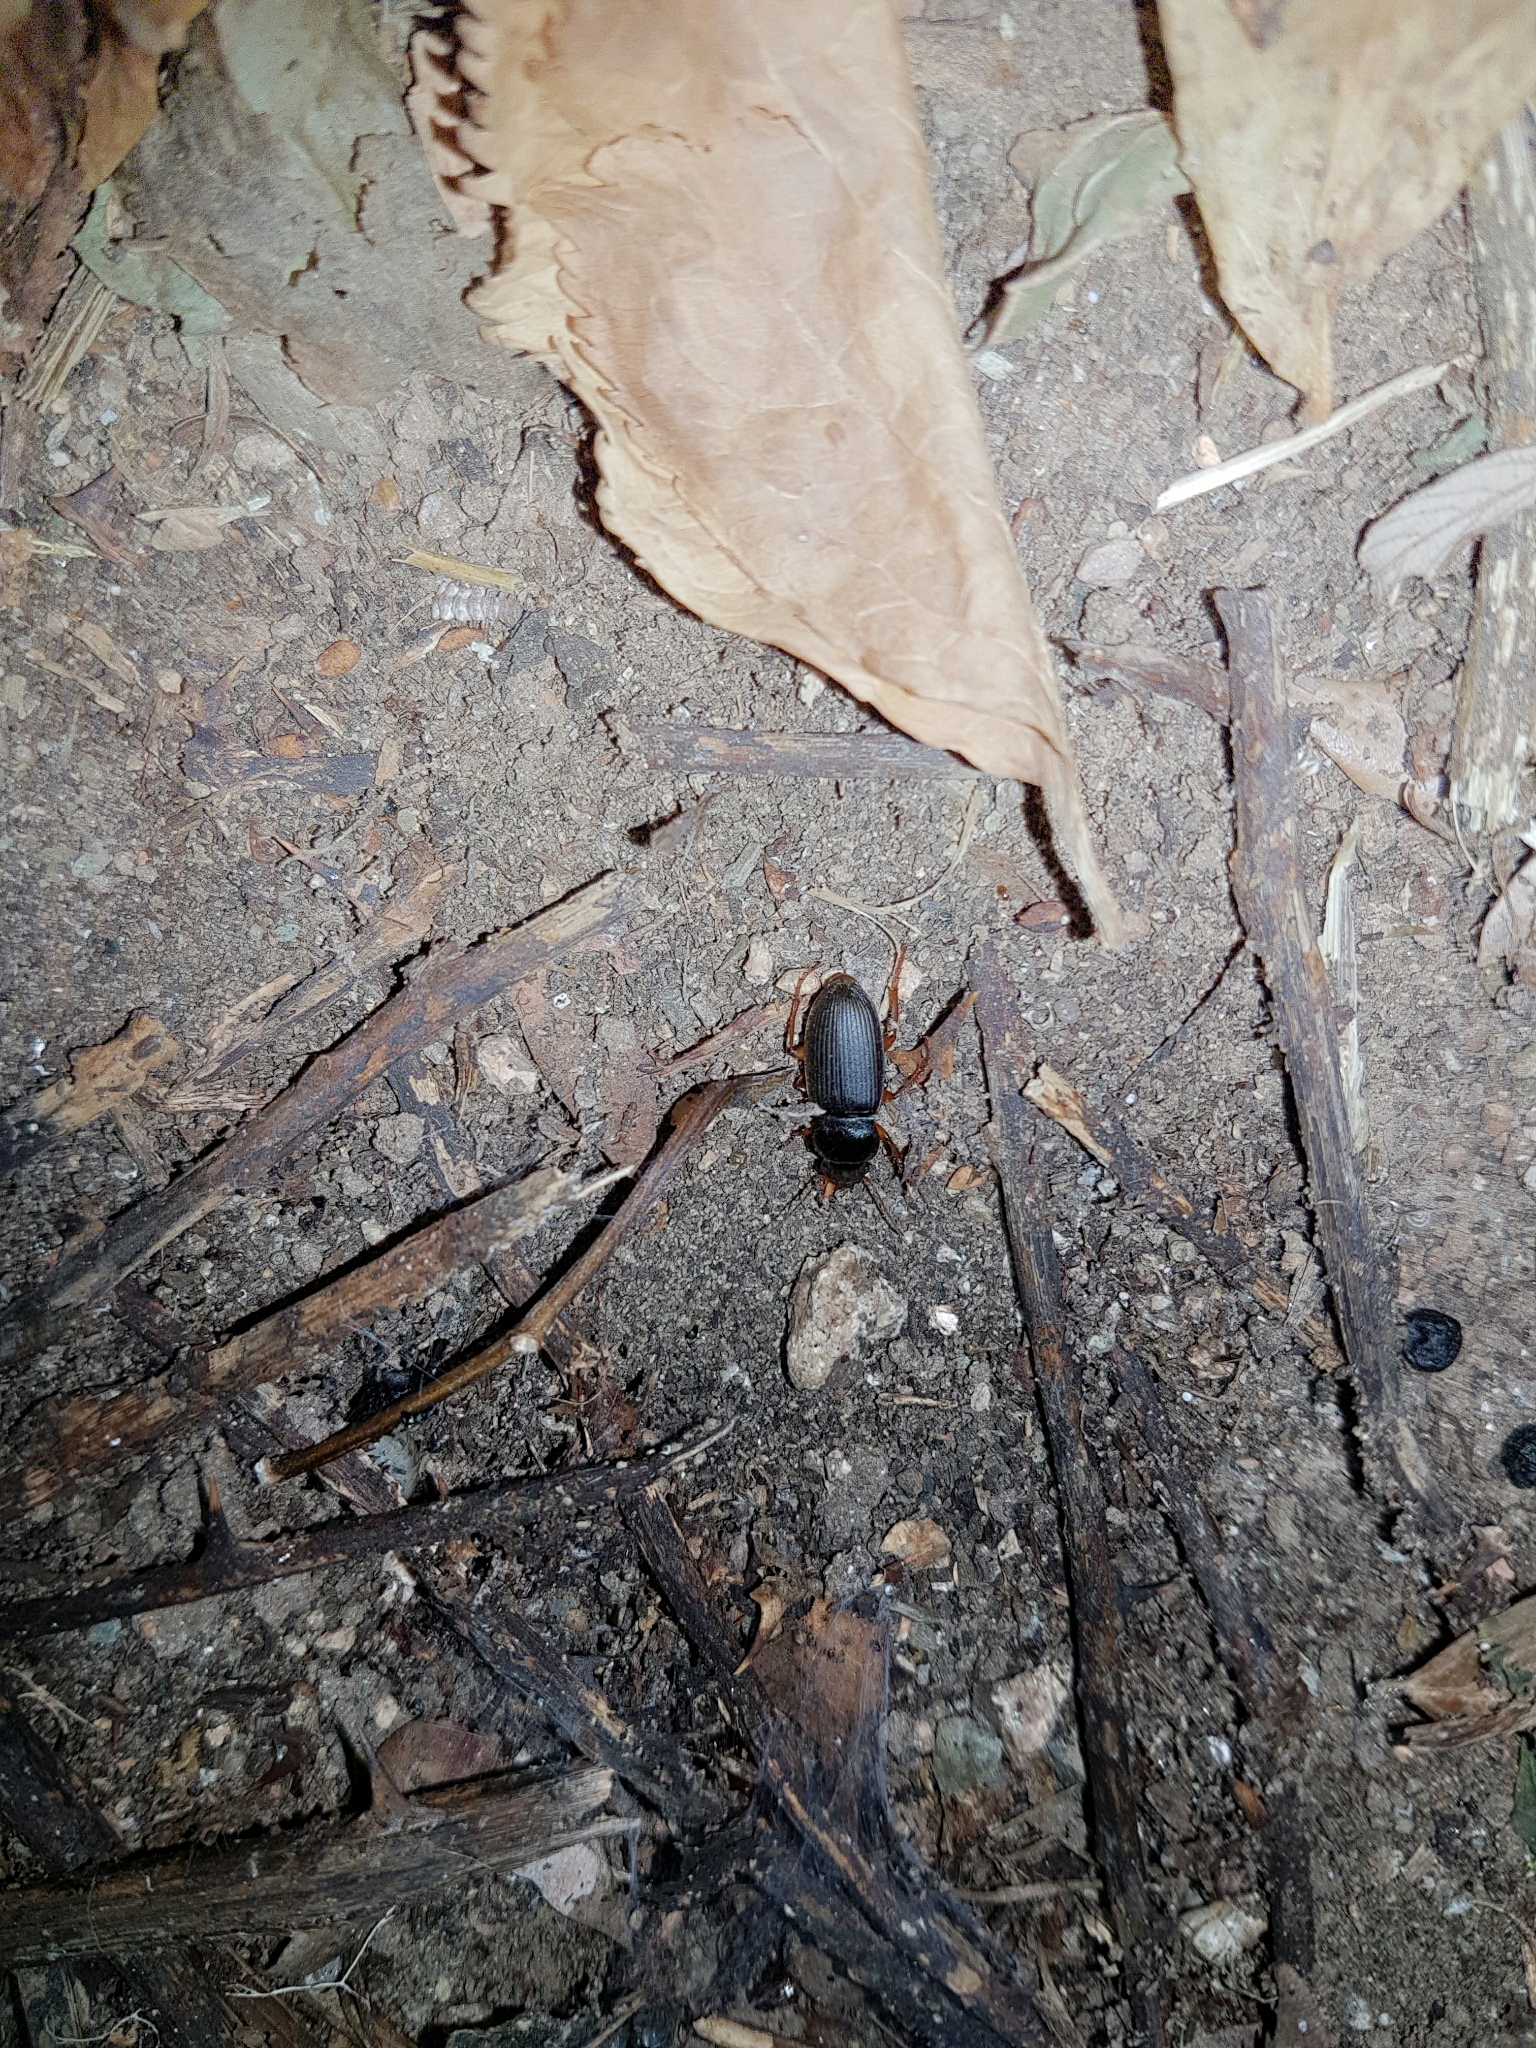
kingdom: Animalia
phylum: Arthropoda
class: Insecta
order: Coleoptera
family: Carabidae
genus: Harpalus
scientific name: Harpalus rufipes
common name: Strawberry harp ground beetle
